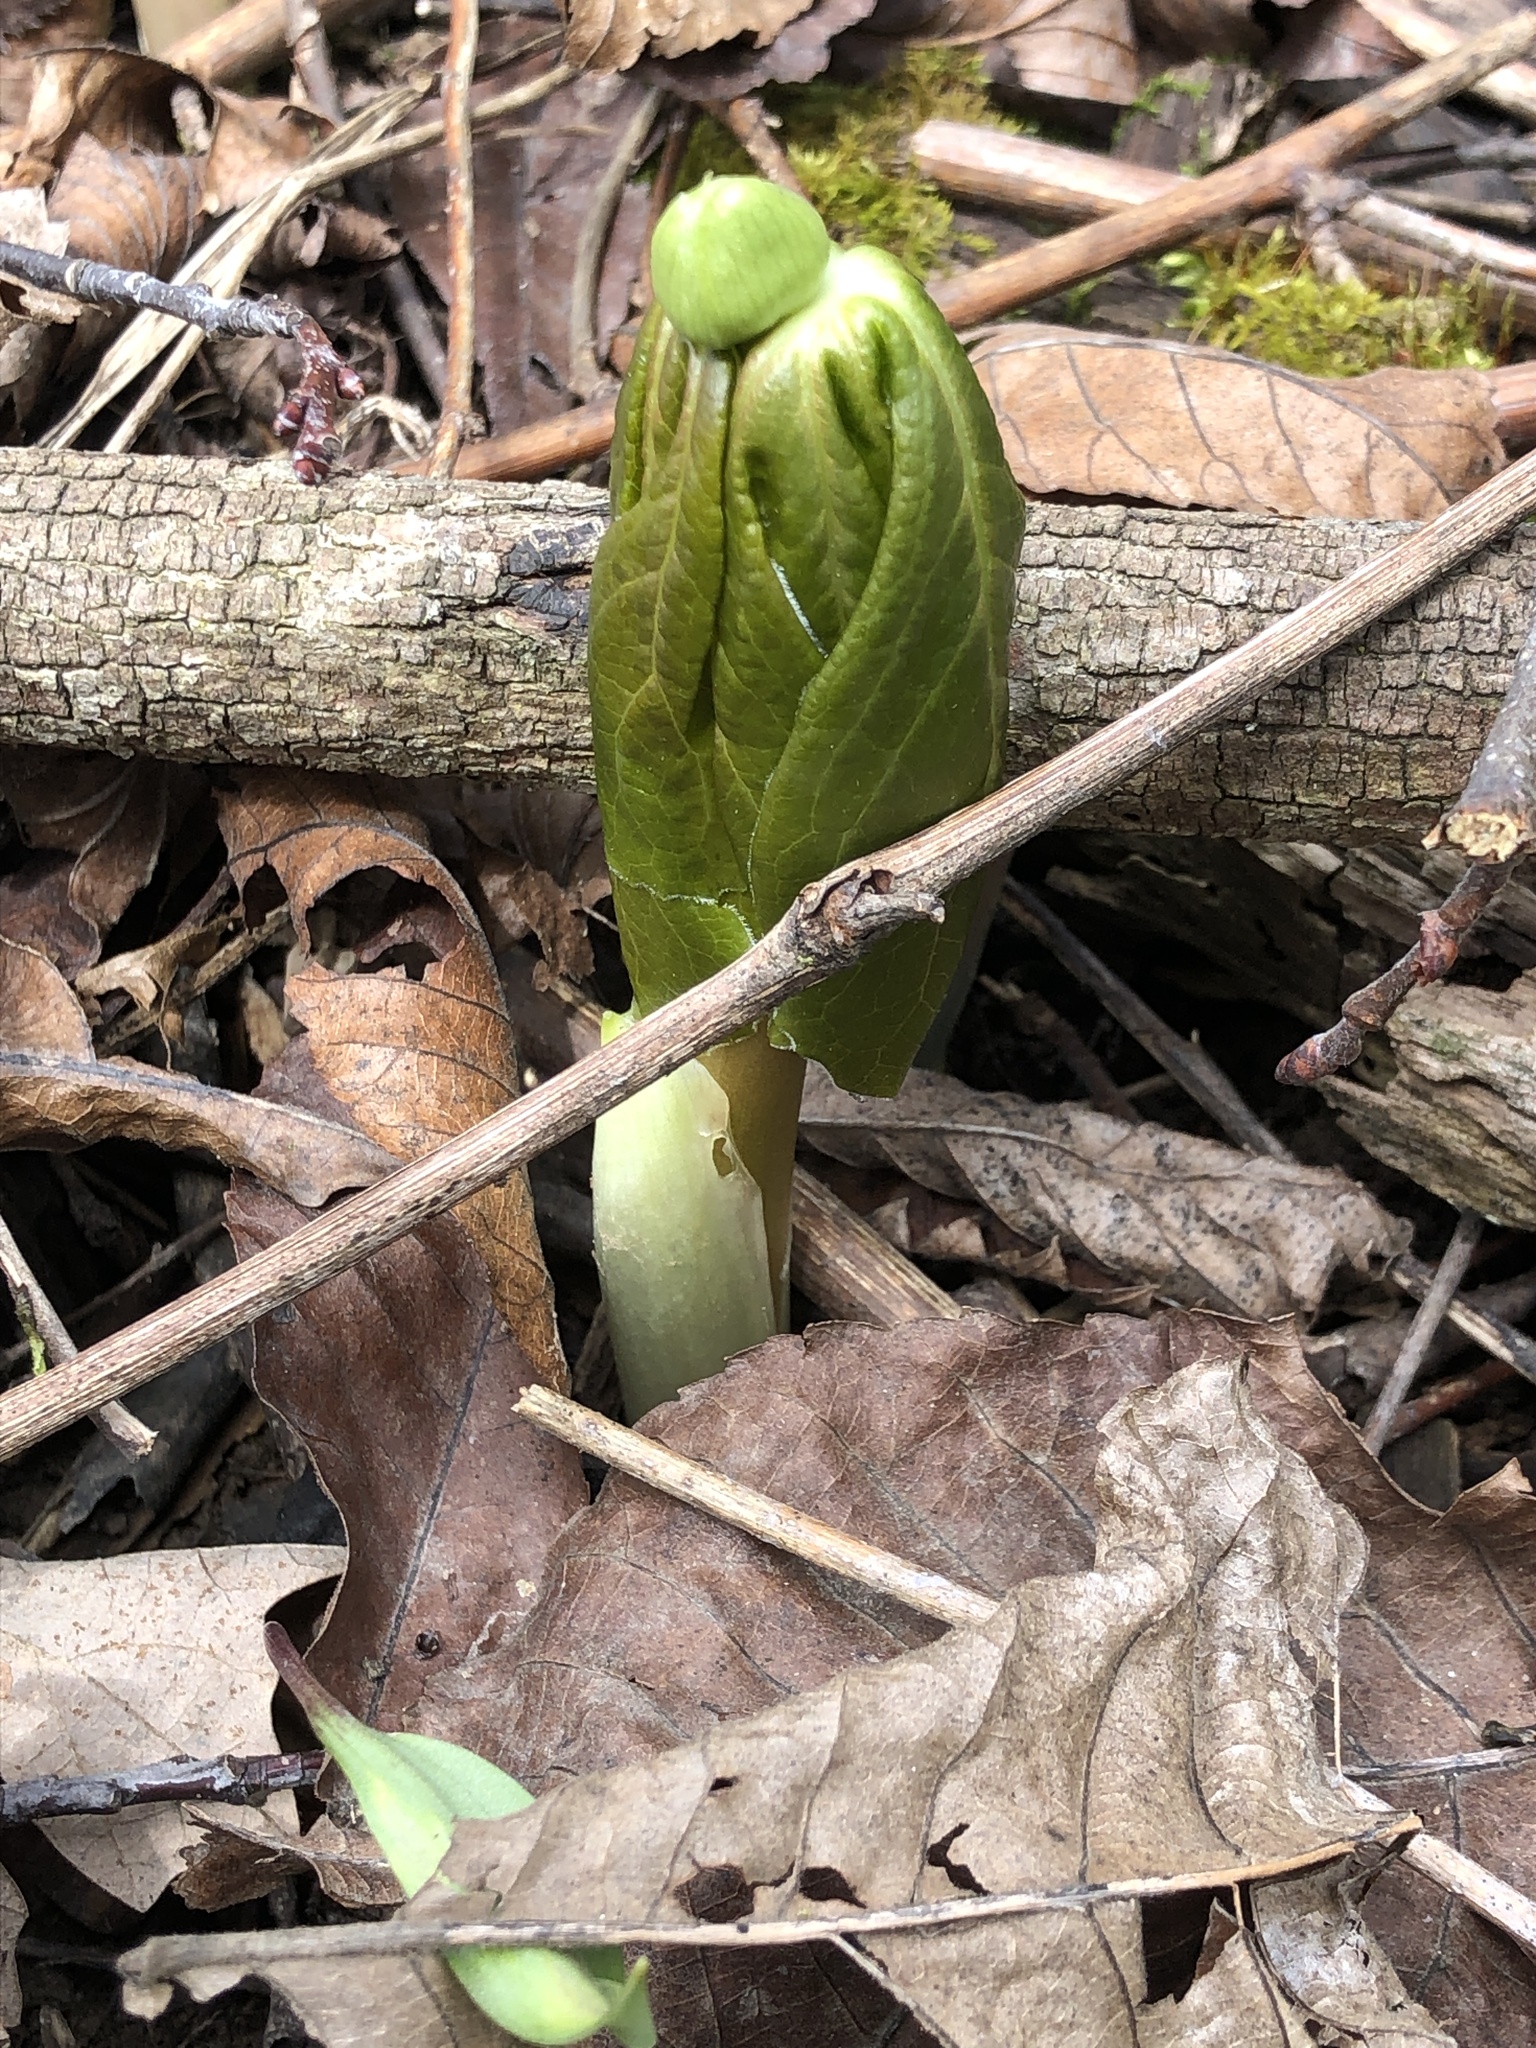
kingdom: Plantae
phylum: Tracheophyta
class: Magnoliopsida
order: Ranunculales
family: Berberidaceae
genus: Podophyllum
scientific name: Podophyllum peltatum
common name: Wild mandrake
